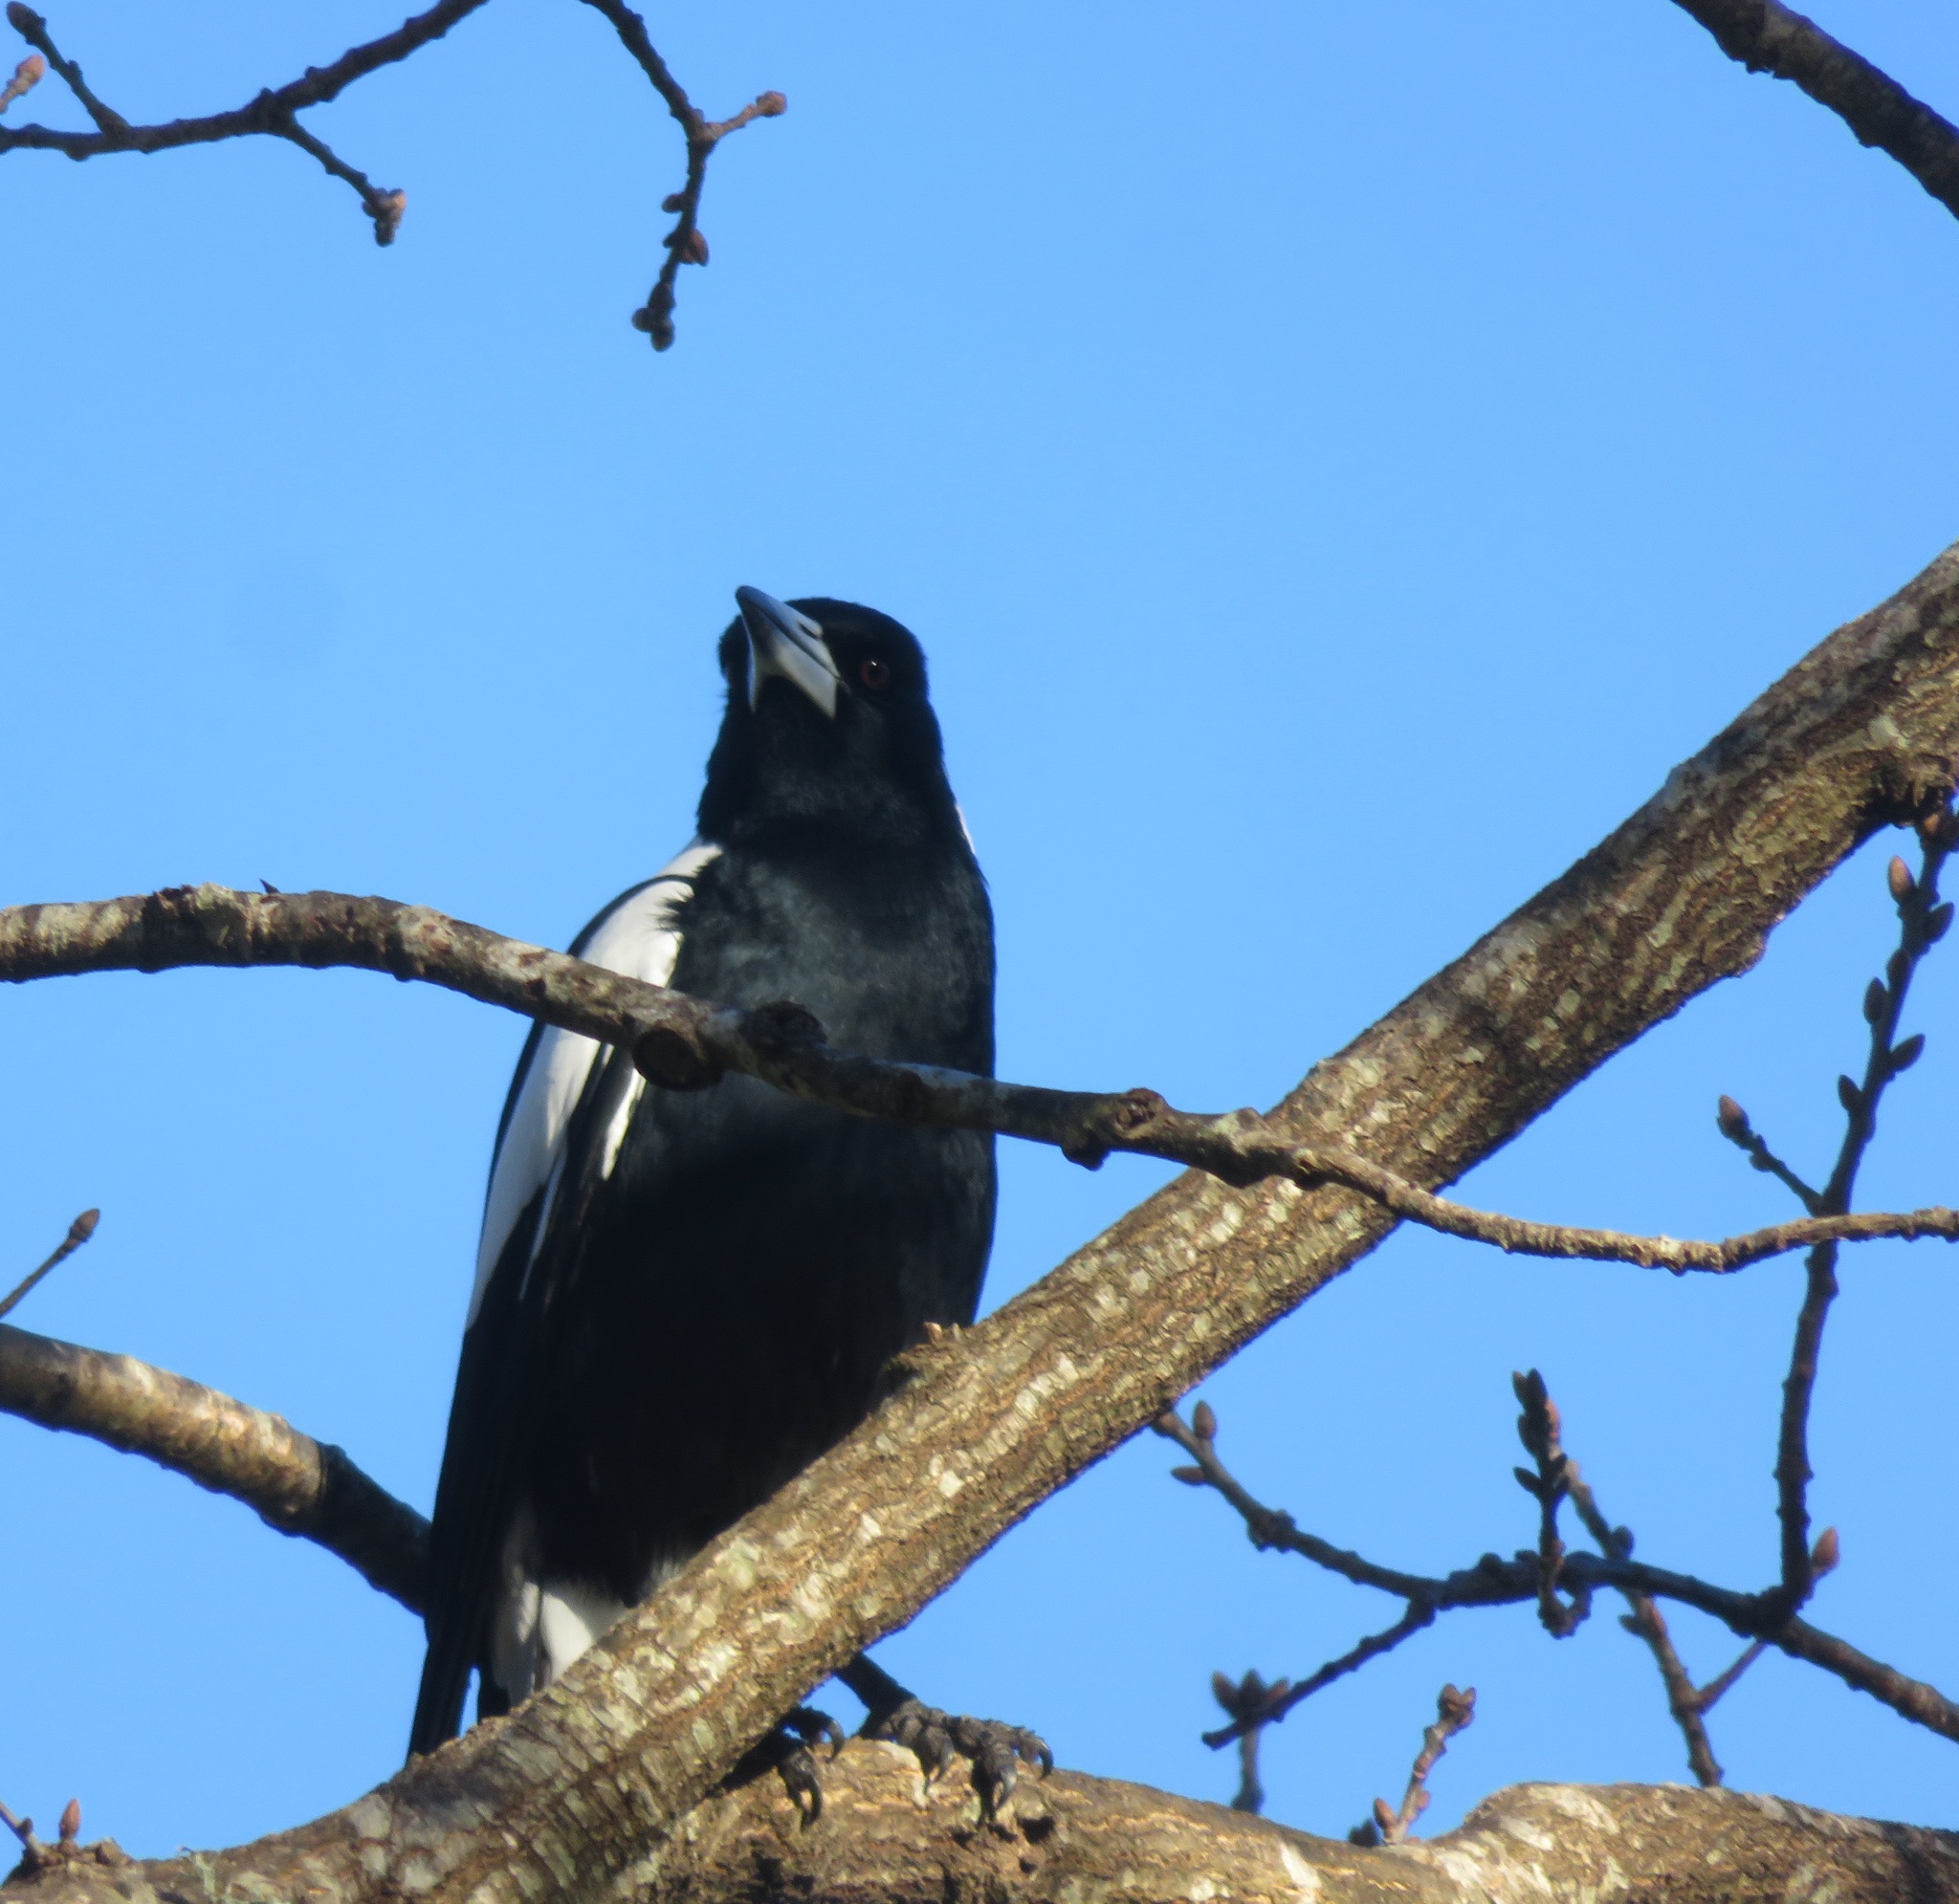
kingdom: Animalia
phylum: Chordata
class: Aves
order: Passeriformes
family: Cracticidae
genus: Gymnorhina
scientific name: Gymnorhina tibicen
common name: Australian magpie
